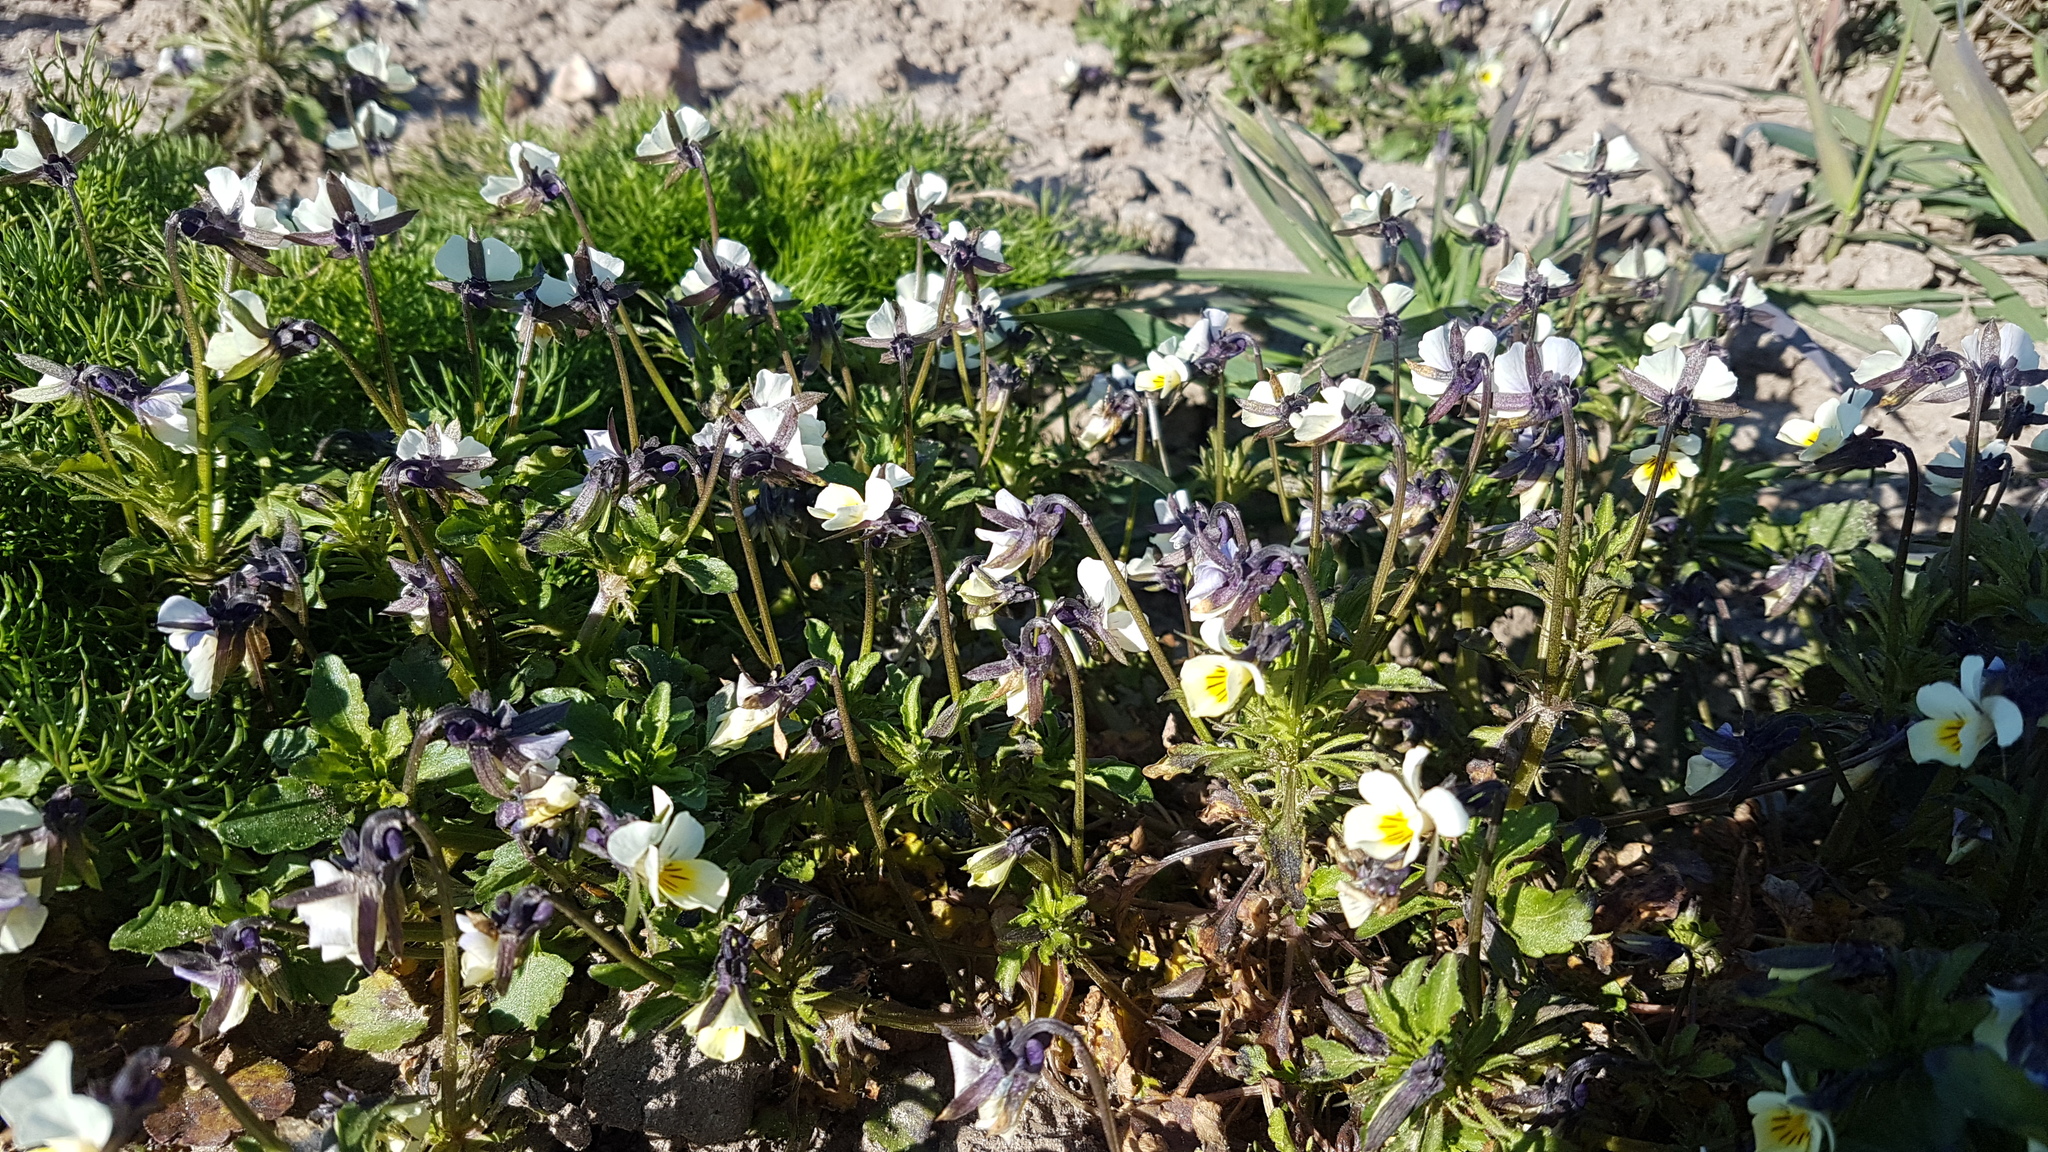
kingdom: Plantae
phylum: Tracheophyta
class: Magnoliopsida
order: Malpighiales
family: Violaceae
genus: Viola
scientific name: Viola arvensis
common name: Field pansy
